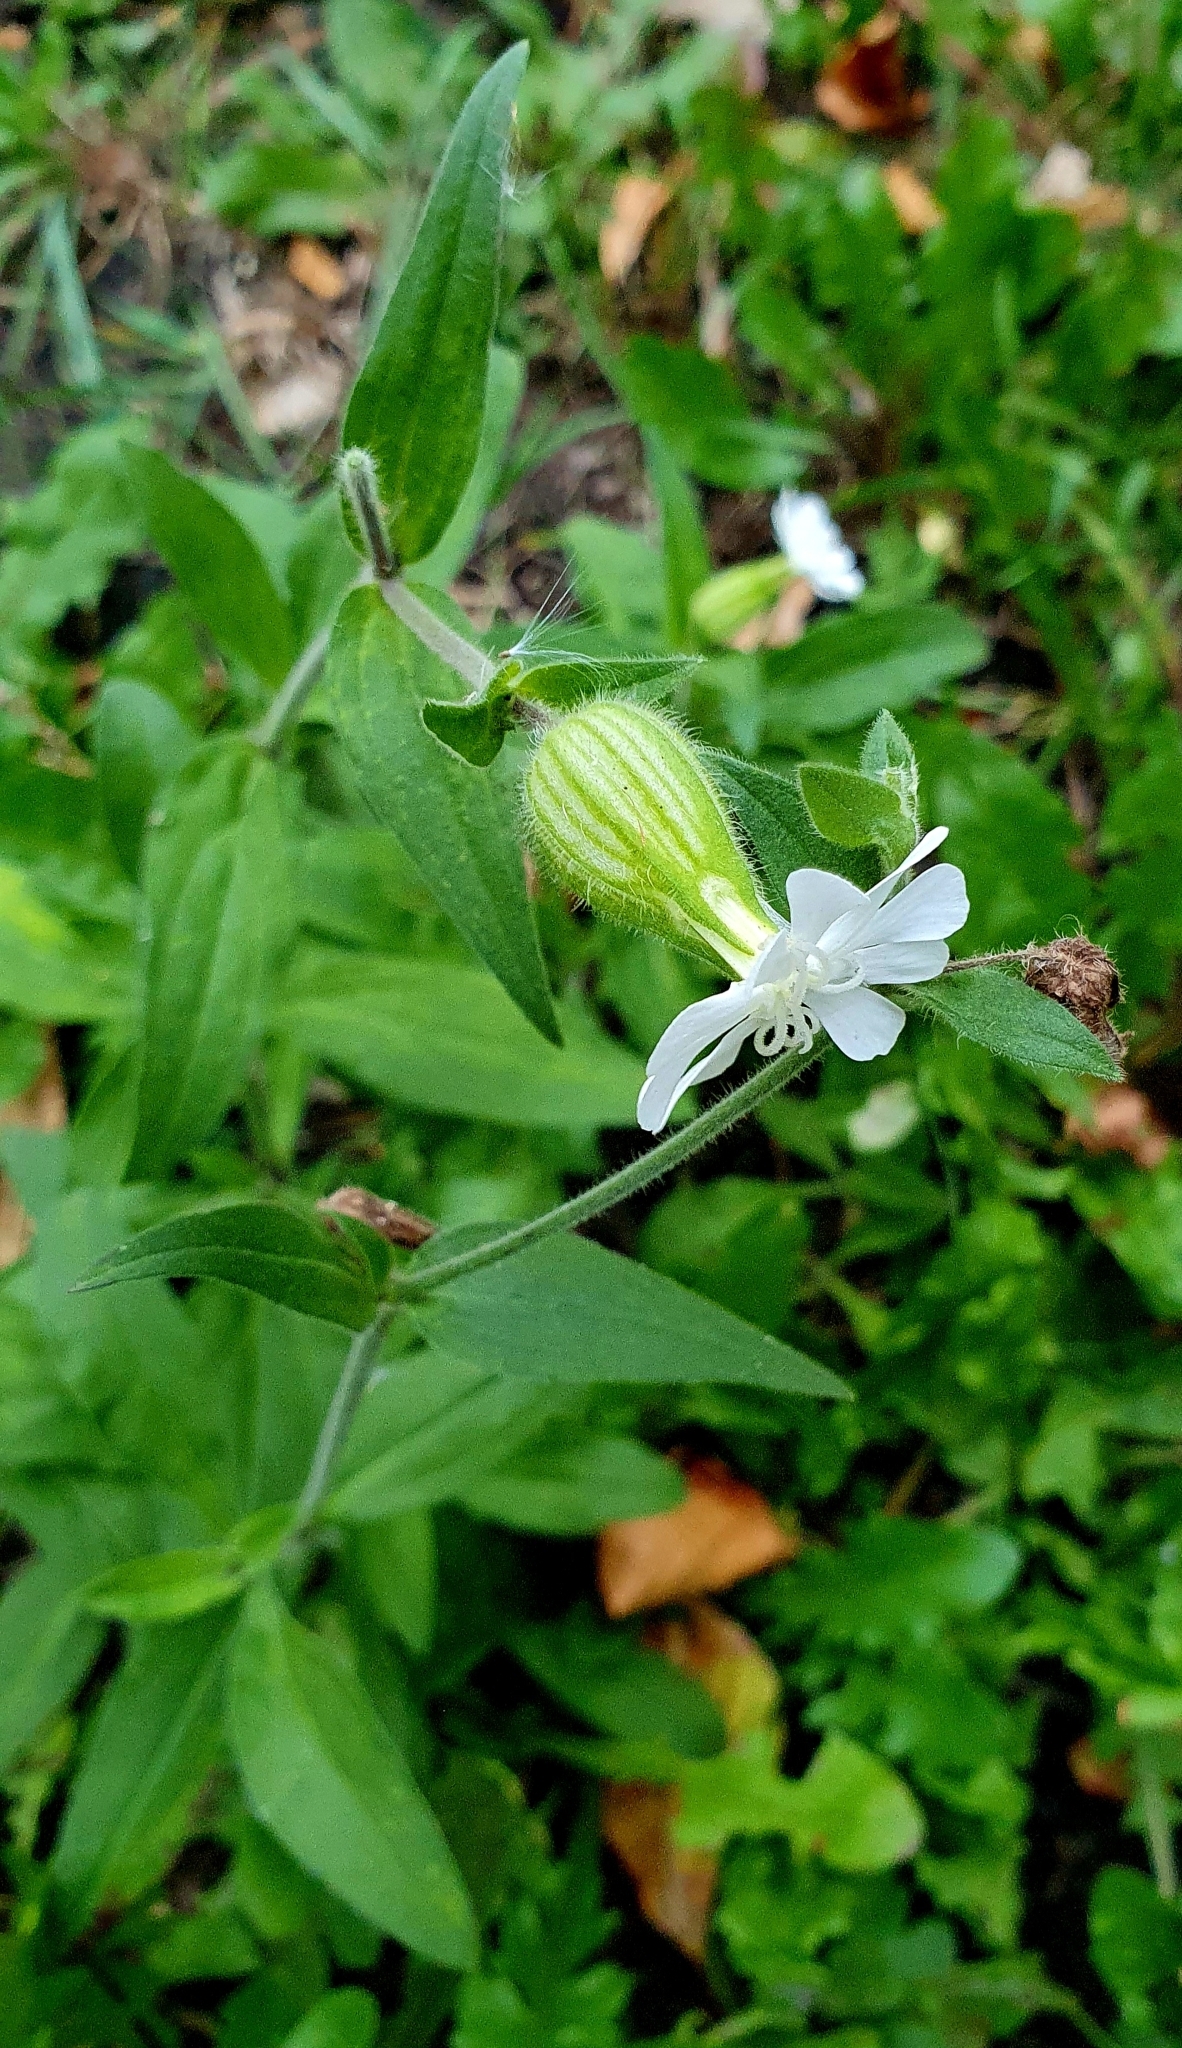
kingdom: Plantae
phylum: Tracheophyta
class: Magnoliopsida
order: Caryophyllales
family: Caryophyllaceae
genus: Silene
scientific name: Silene latifolia
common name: White campion
